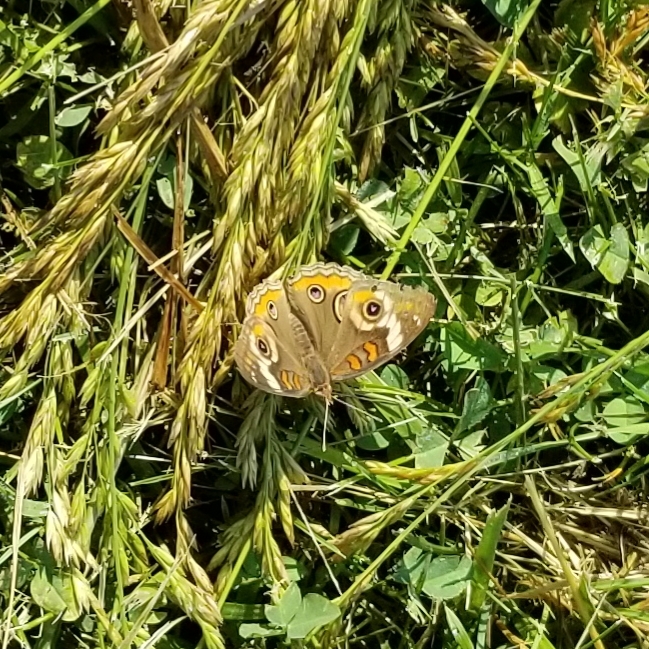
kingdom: Animalia
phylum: Arthropoda
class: Insecta
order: Lepidoptera
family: Nymphalidae
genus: Junonia
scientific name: Junonia coenia
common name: Common buckeye
